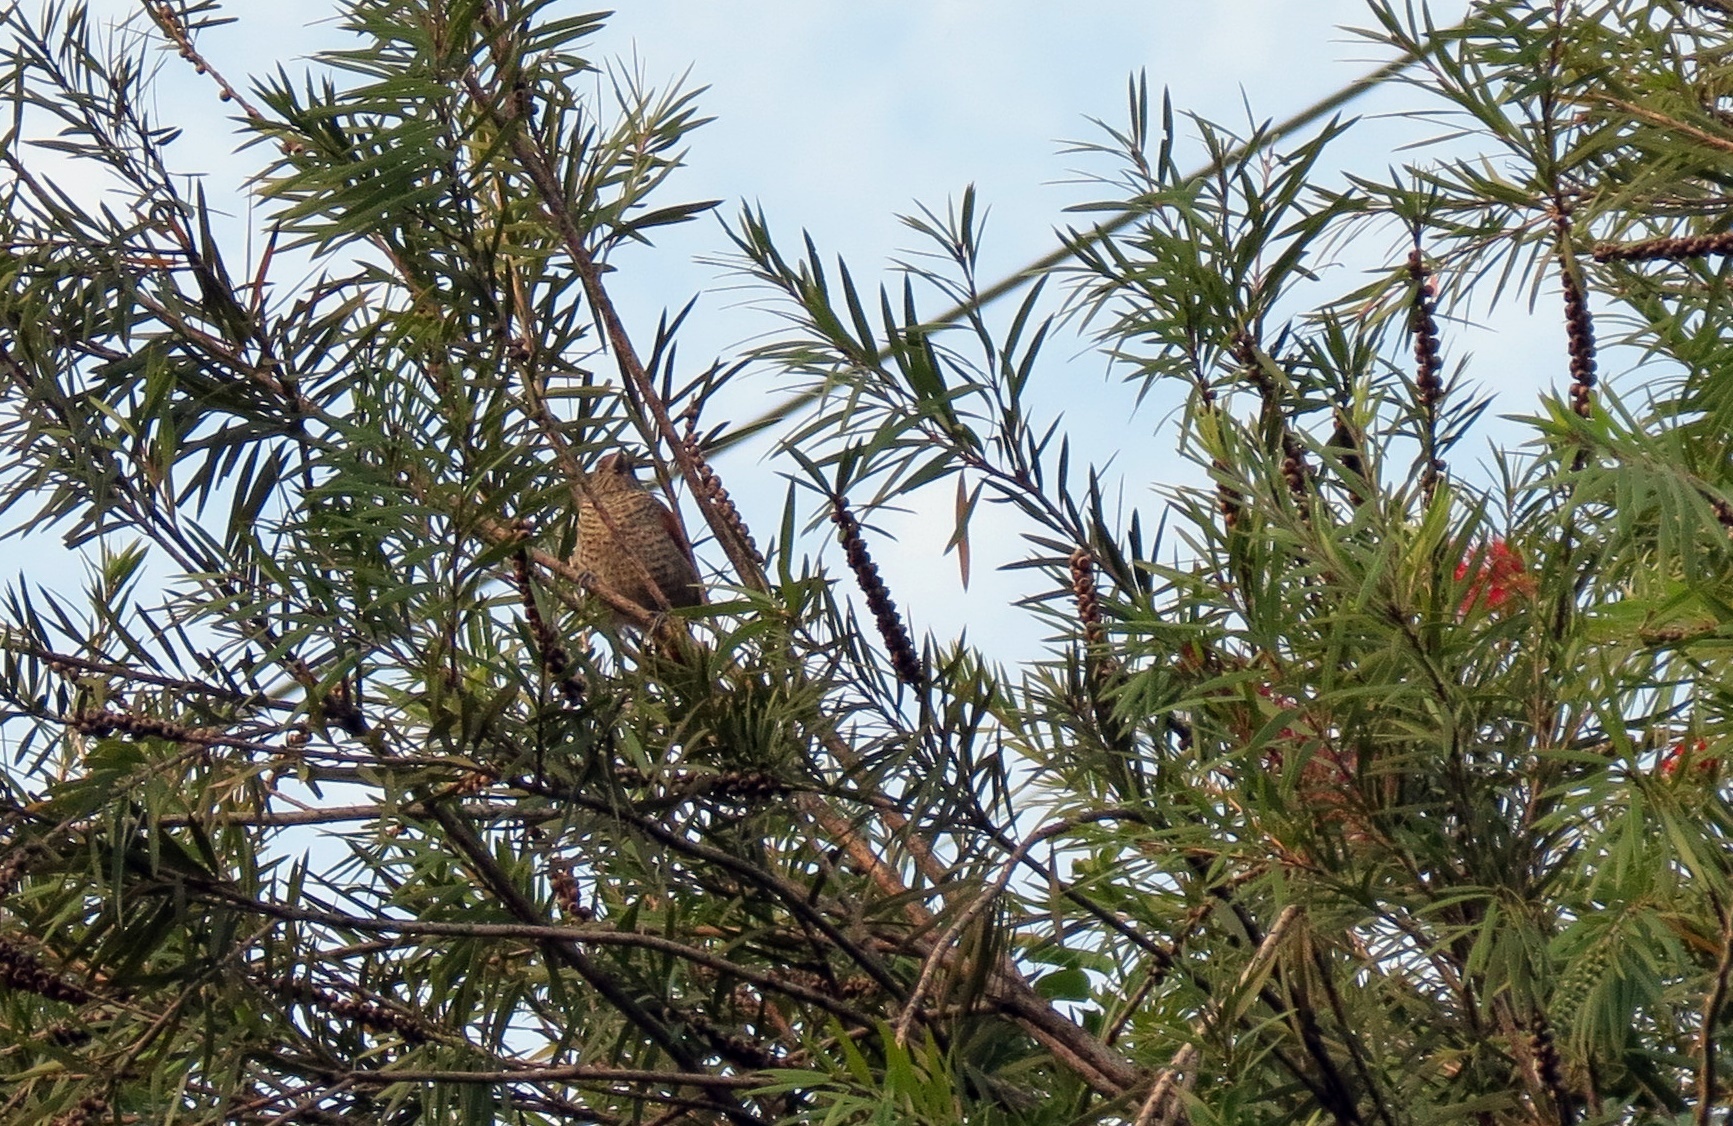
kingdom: Animalia
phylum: Chordata
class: Aves
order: Passeriformes
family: Thamnophilidae
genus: Thamnophilus
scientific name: Thamnophilus multistriatus
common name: Bar-crested antshrike
